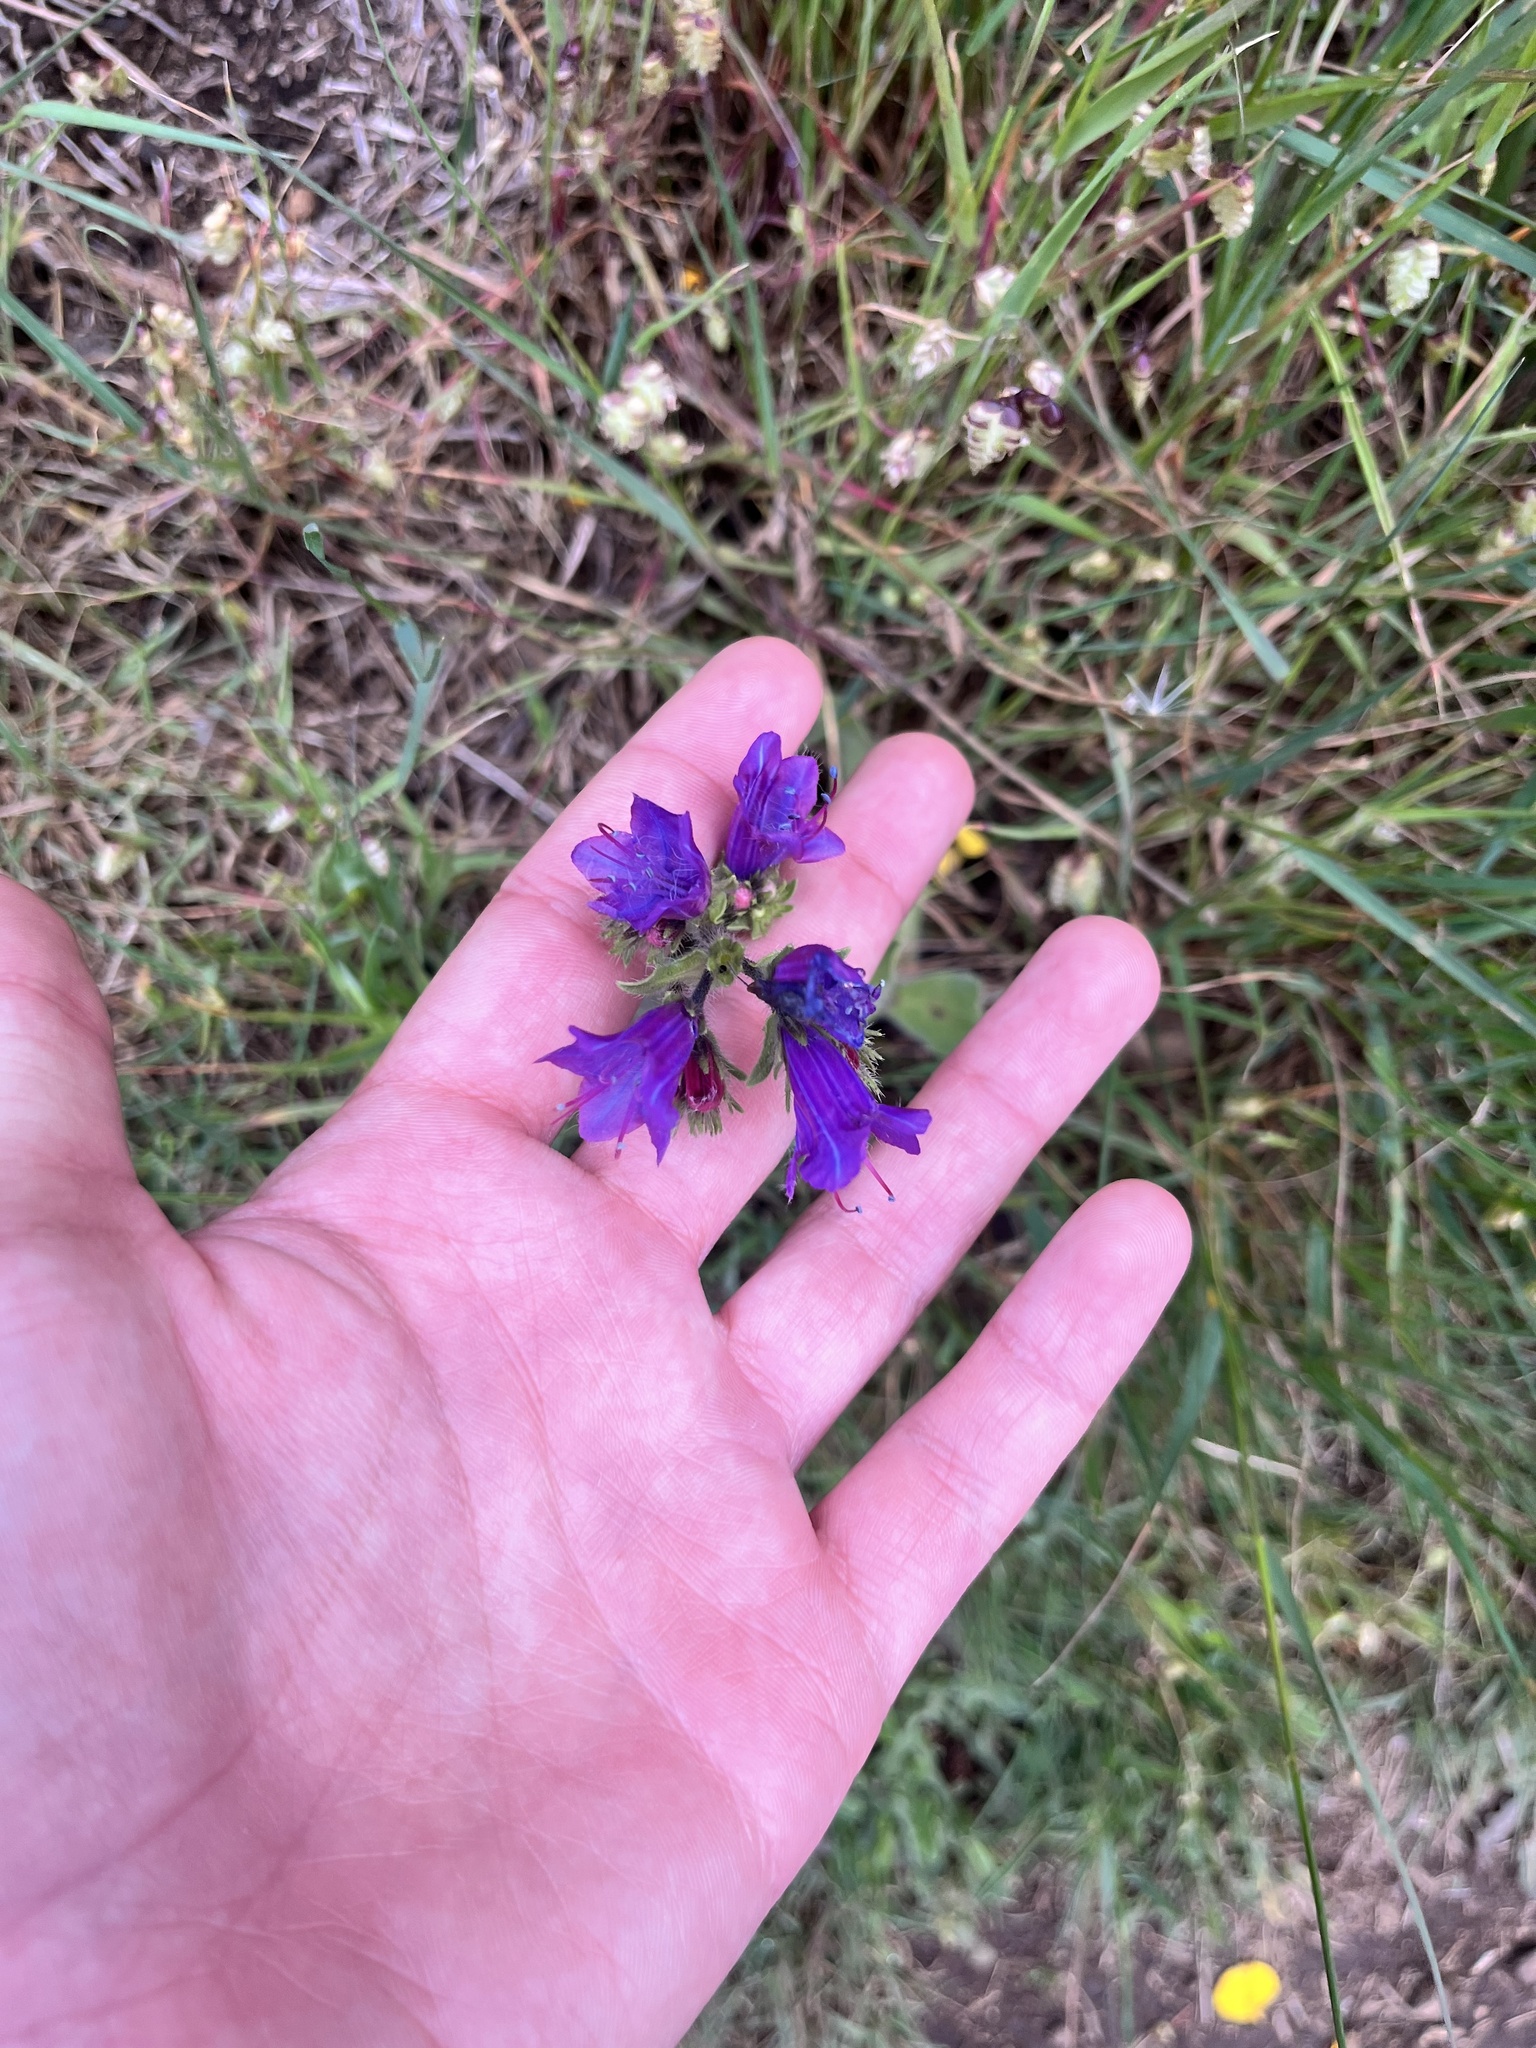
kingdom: Plantae
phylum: Tracheophyta
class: Magnoliopsida
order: Boraginales
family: Boraginaceae
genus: Echium
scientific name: Echium plantagineum
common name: Purple viper's-bugloss
